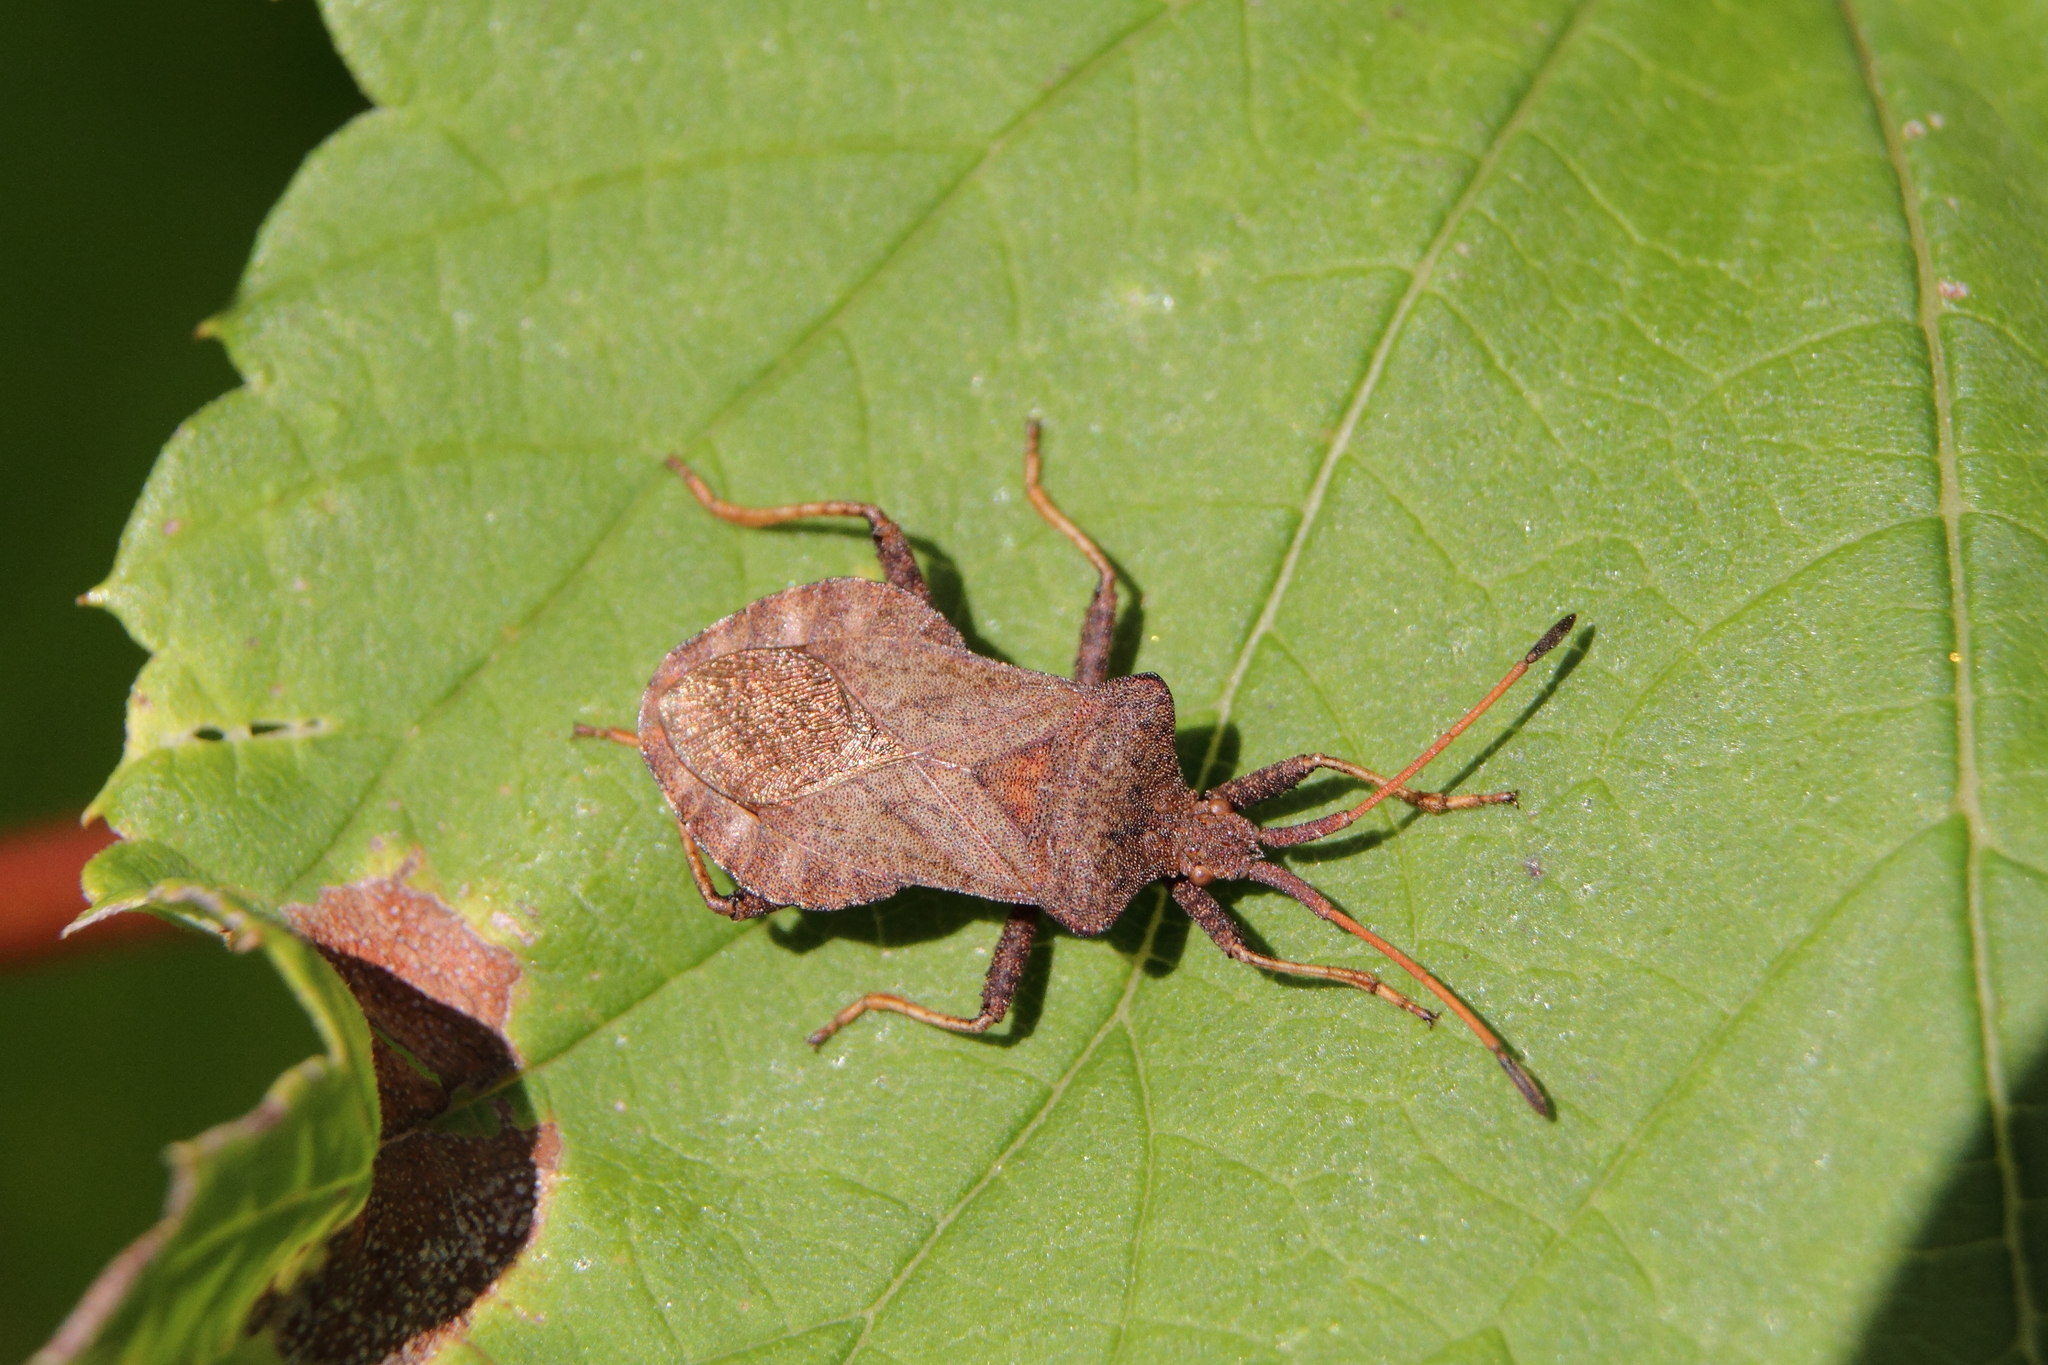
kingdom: Animalia
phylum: Arthropoda
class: Insecta
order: Hemiptera
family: Coreidae
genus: Coreus
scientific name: Coreus marginatus
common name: Dock bug
